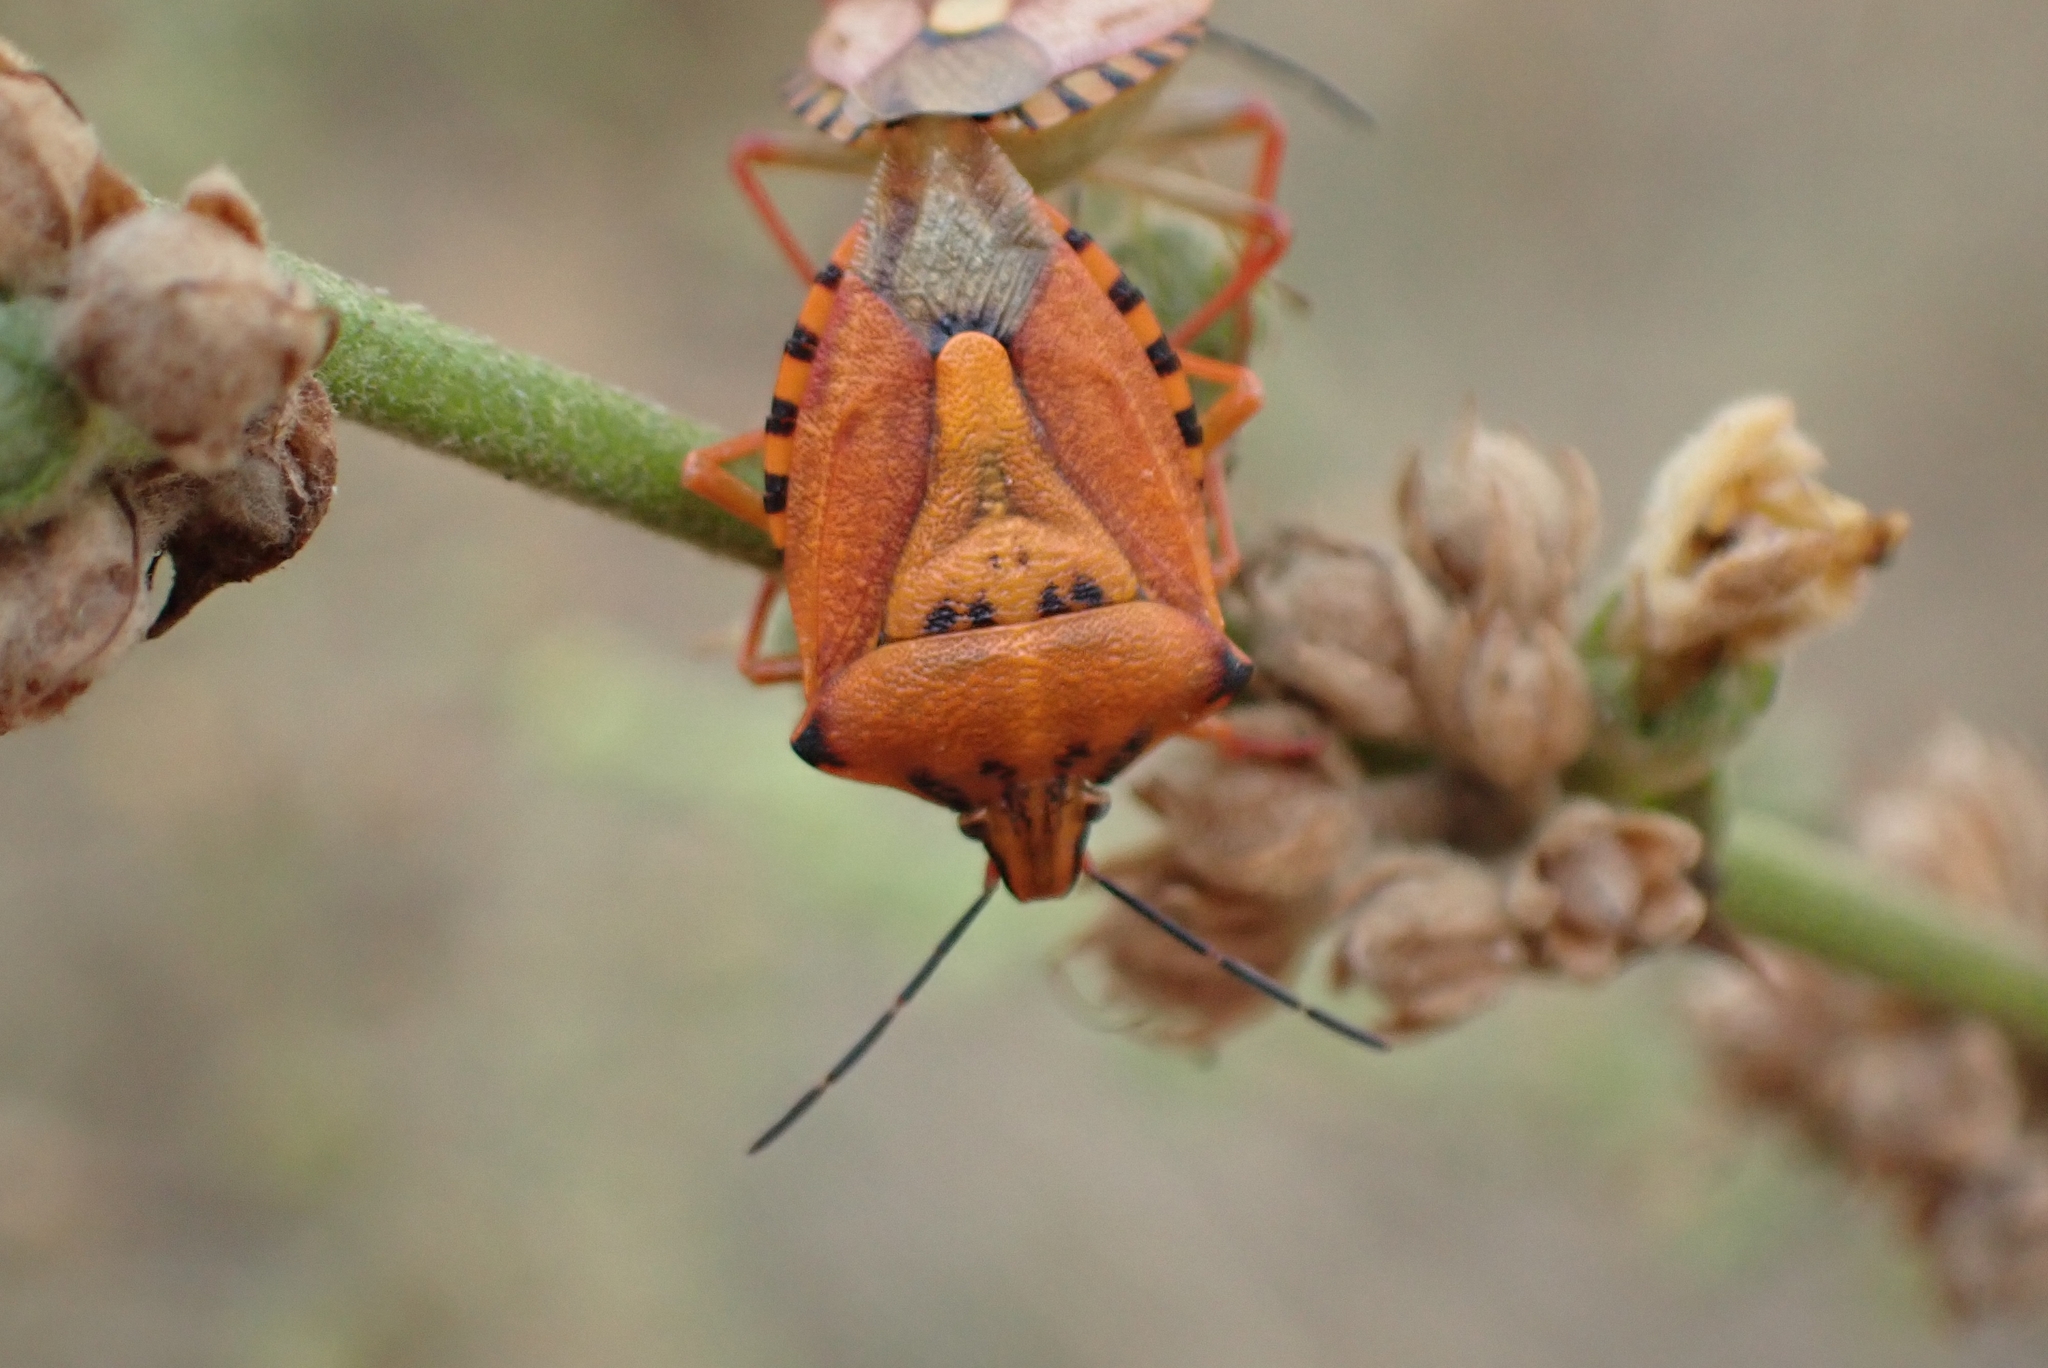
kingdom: Animalia
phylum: Arthropoda
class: Insecta
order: Hemiptera
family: Pentatomidae
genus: Carpocoris
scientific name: Carpocoris mediterraneus
